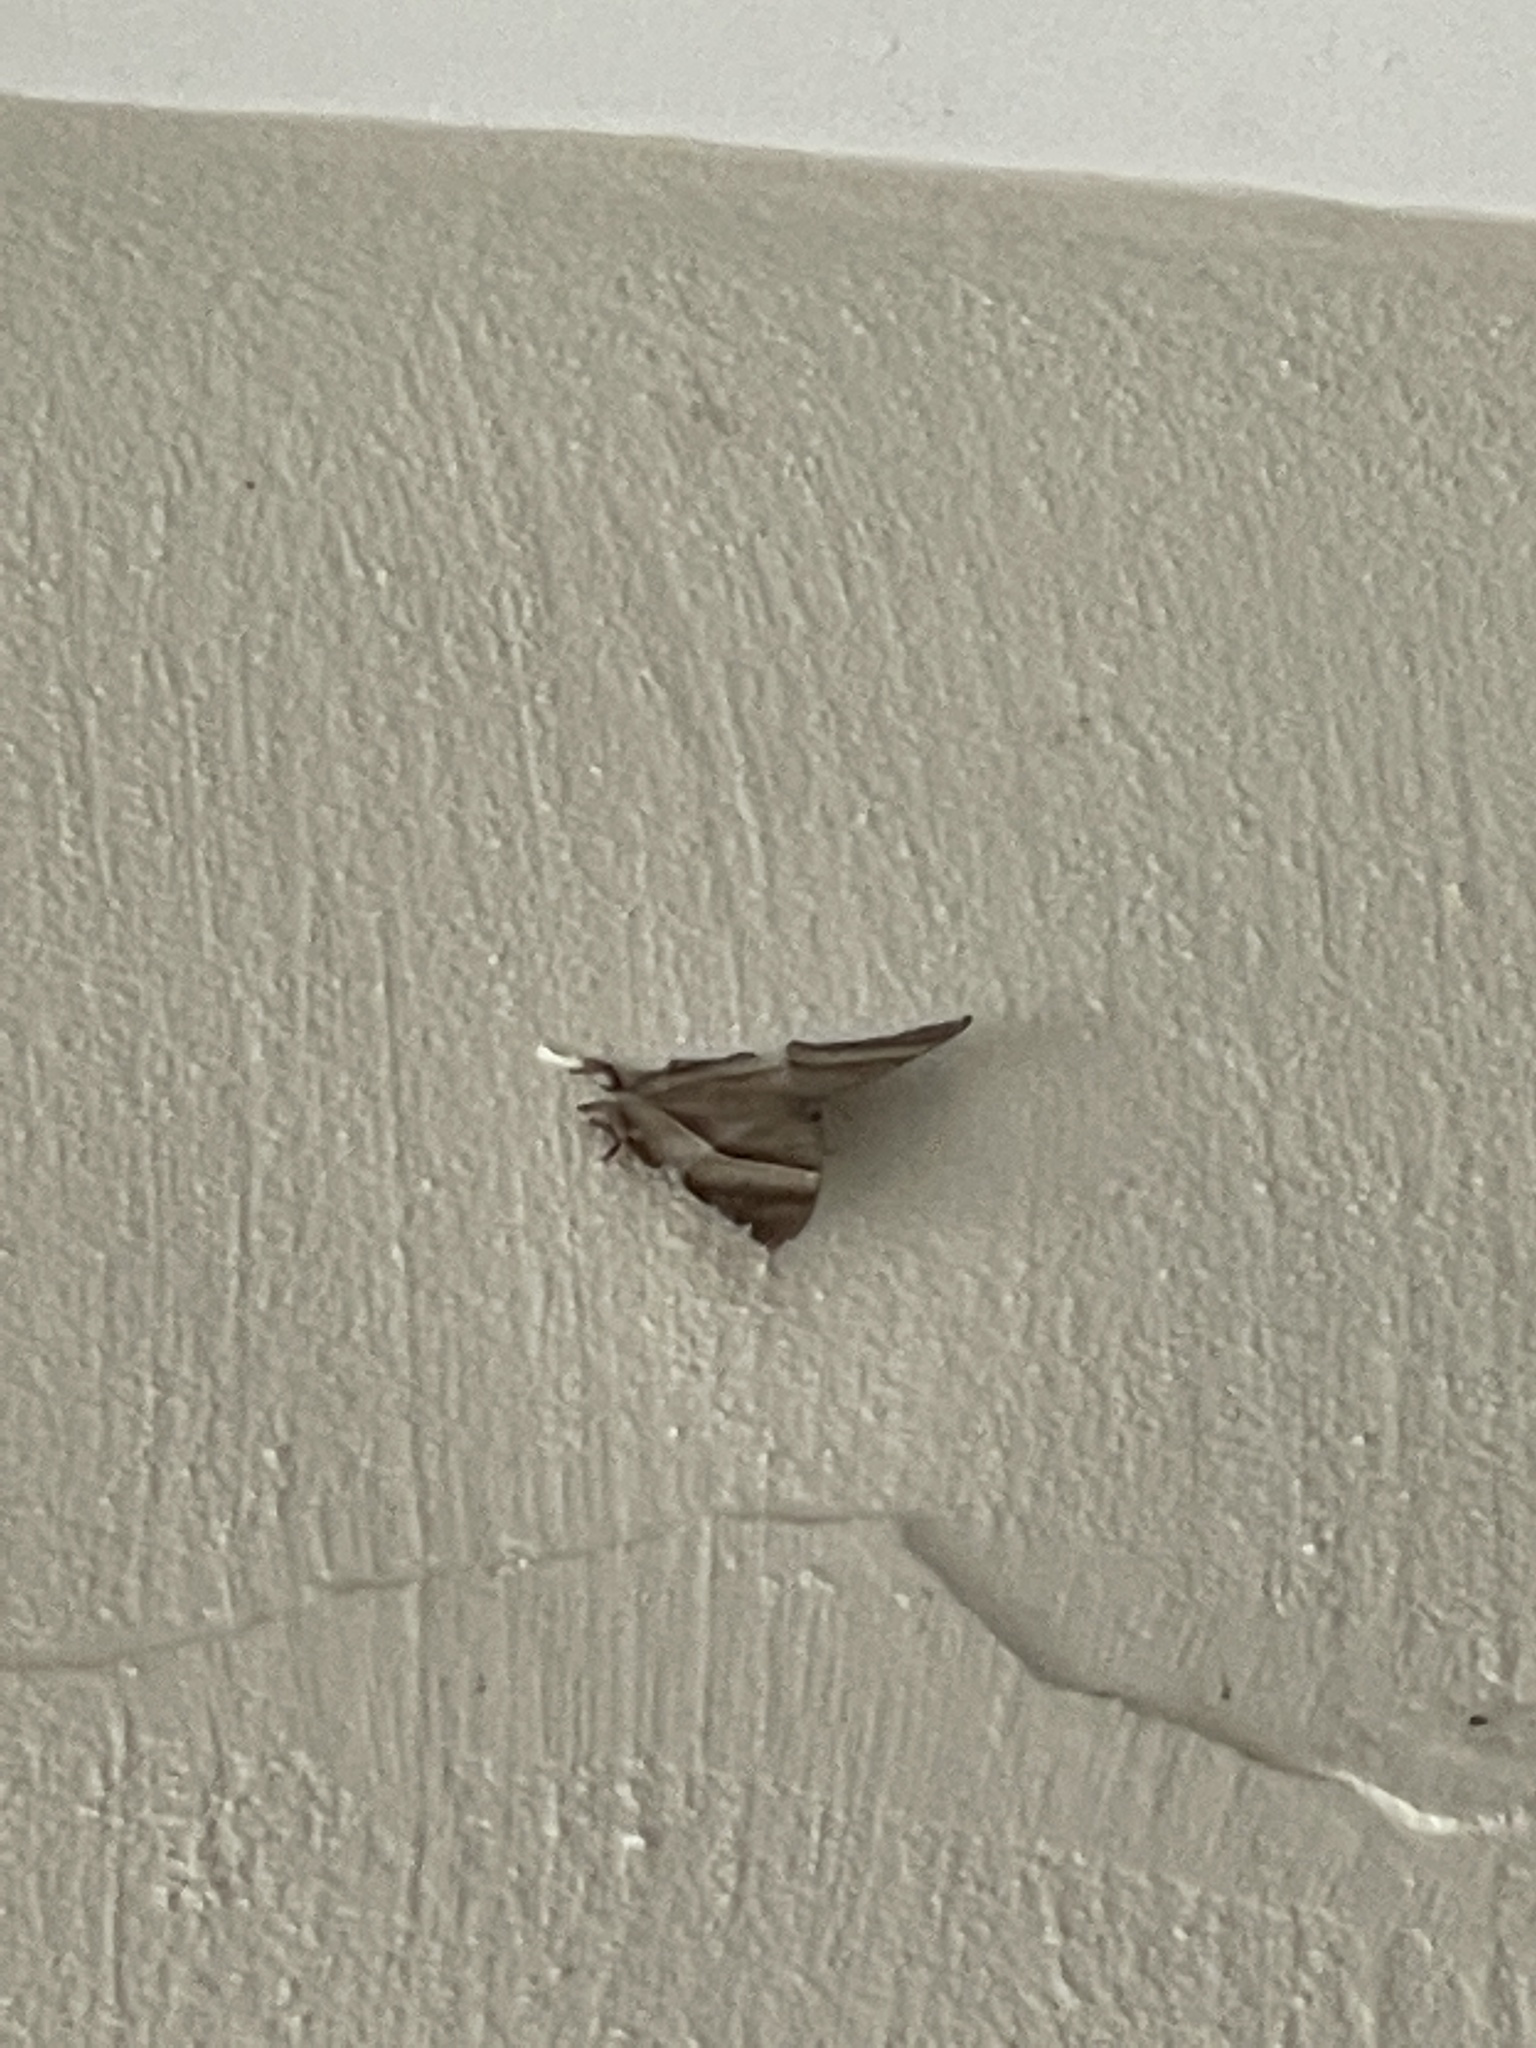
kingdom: Animalia
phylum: Arthropoda
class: Insecta
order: Lepidoptera
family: Uraniidae
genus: Lyssa
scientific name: Lyssa zampa
